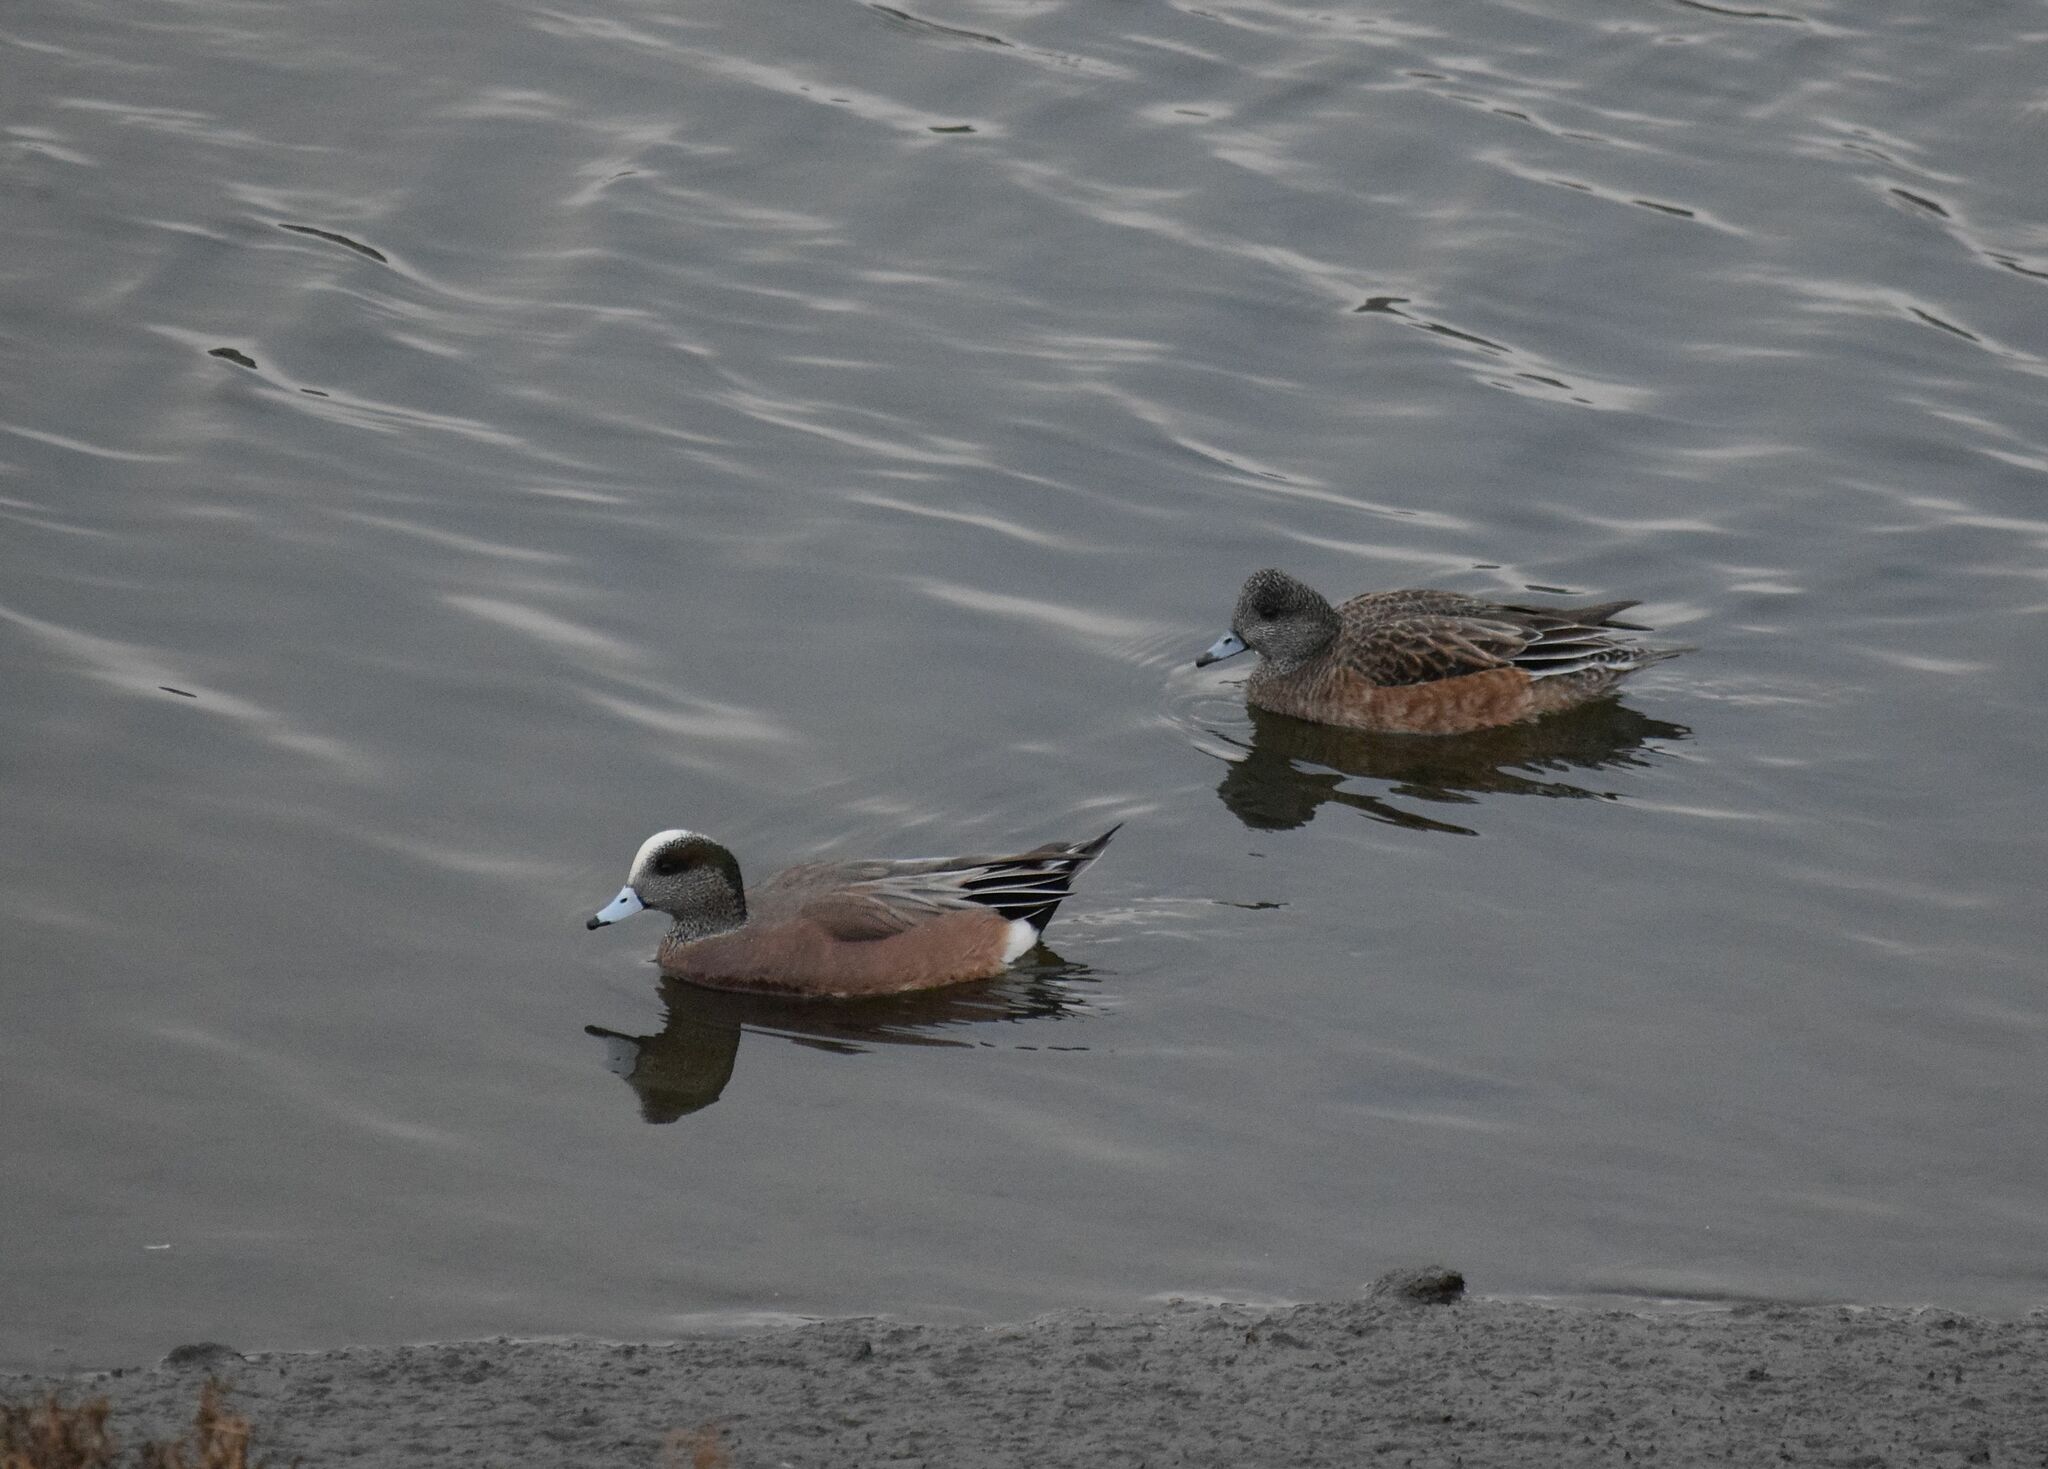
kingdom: Animalia
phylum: Chordata
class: Aves
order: Anseriformes
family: Anatidae
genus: Mareca
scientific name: Mareca americana
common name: American wigeon
